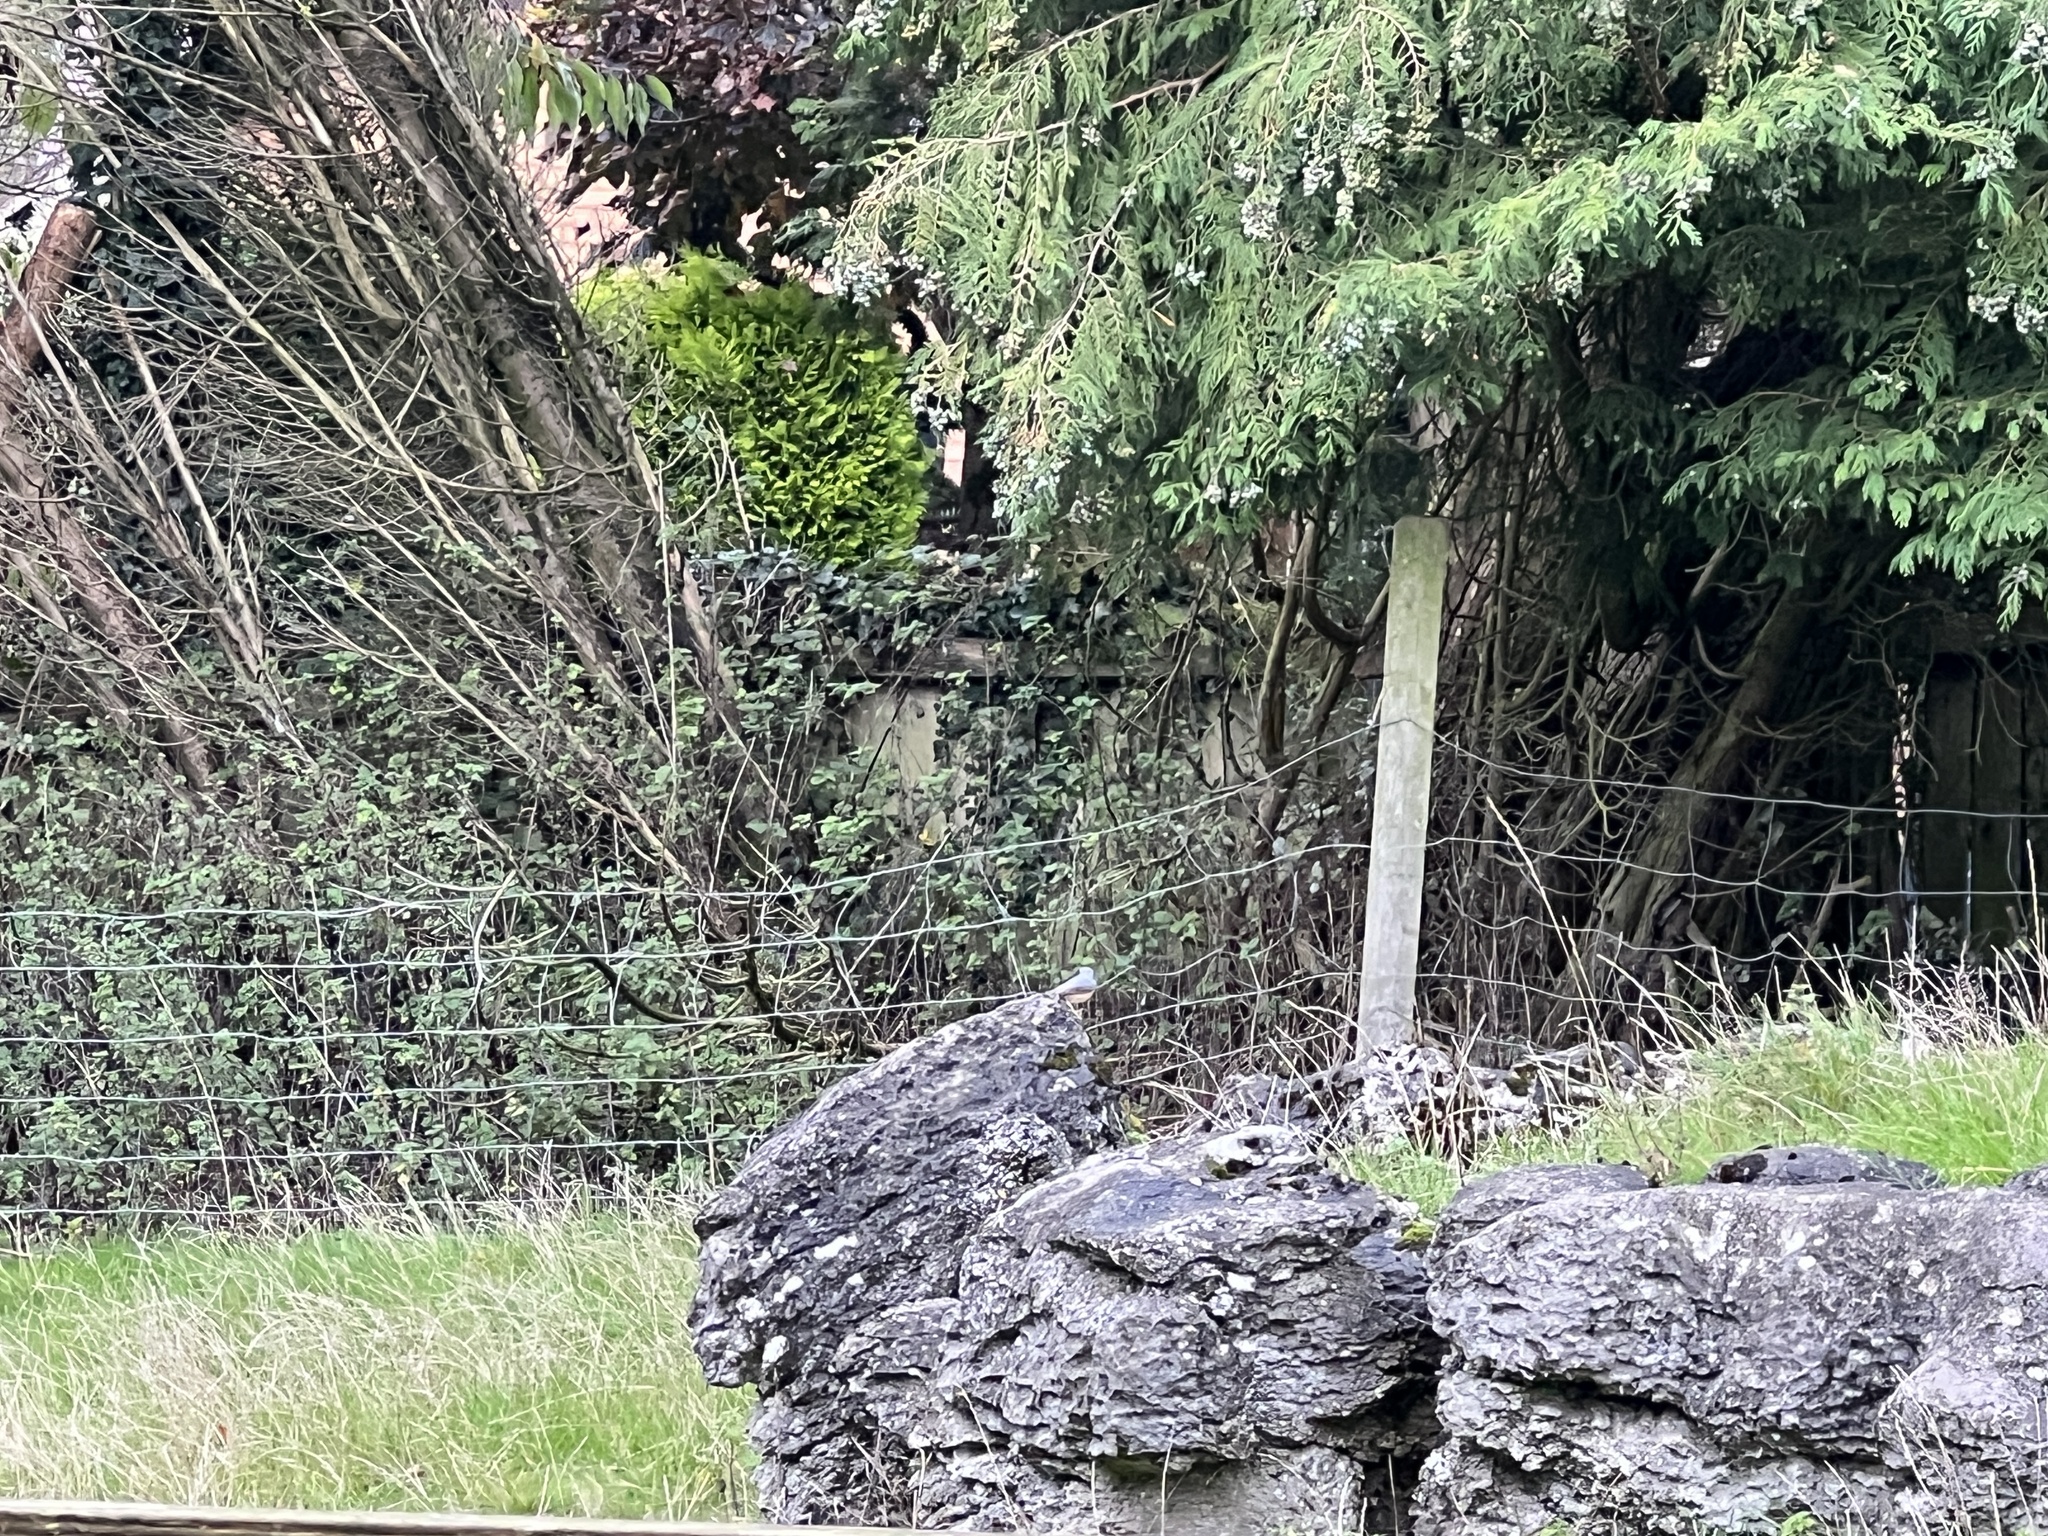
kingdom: Animalia
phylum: Chordata
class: Aves
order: Passeriformes
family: Sittidae
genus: Sitta
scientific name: Sitta europaea
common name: Eurasian nuthatch
